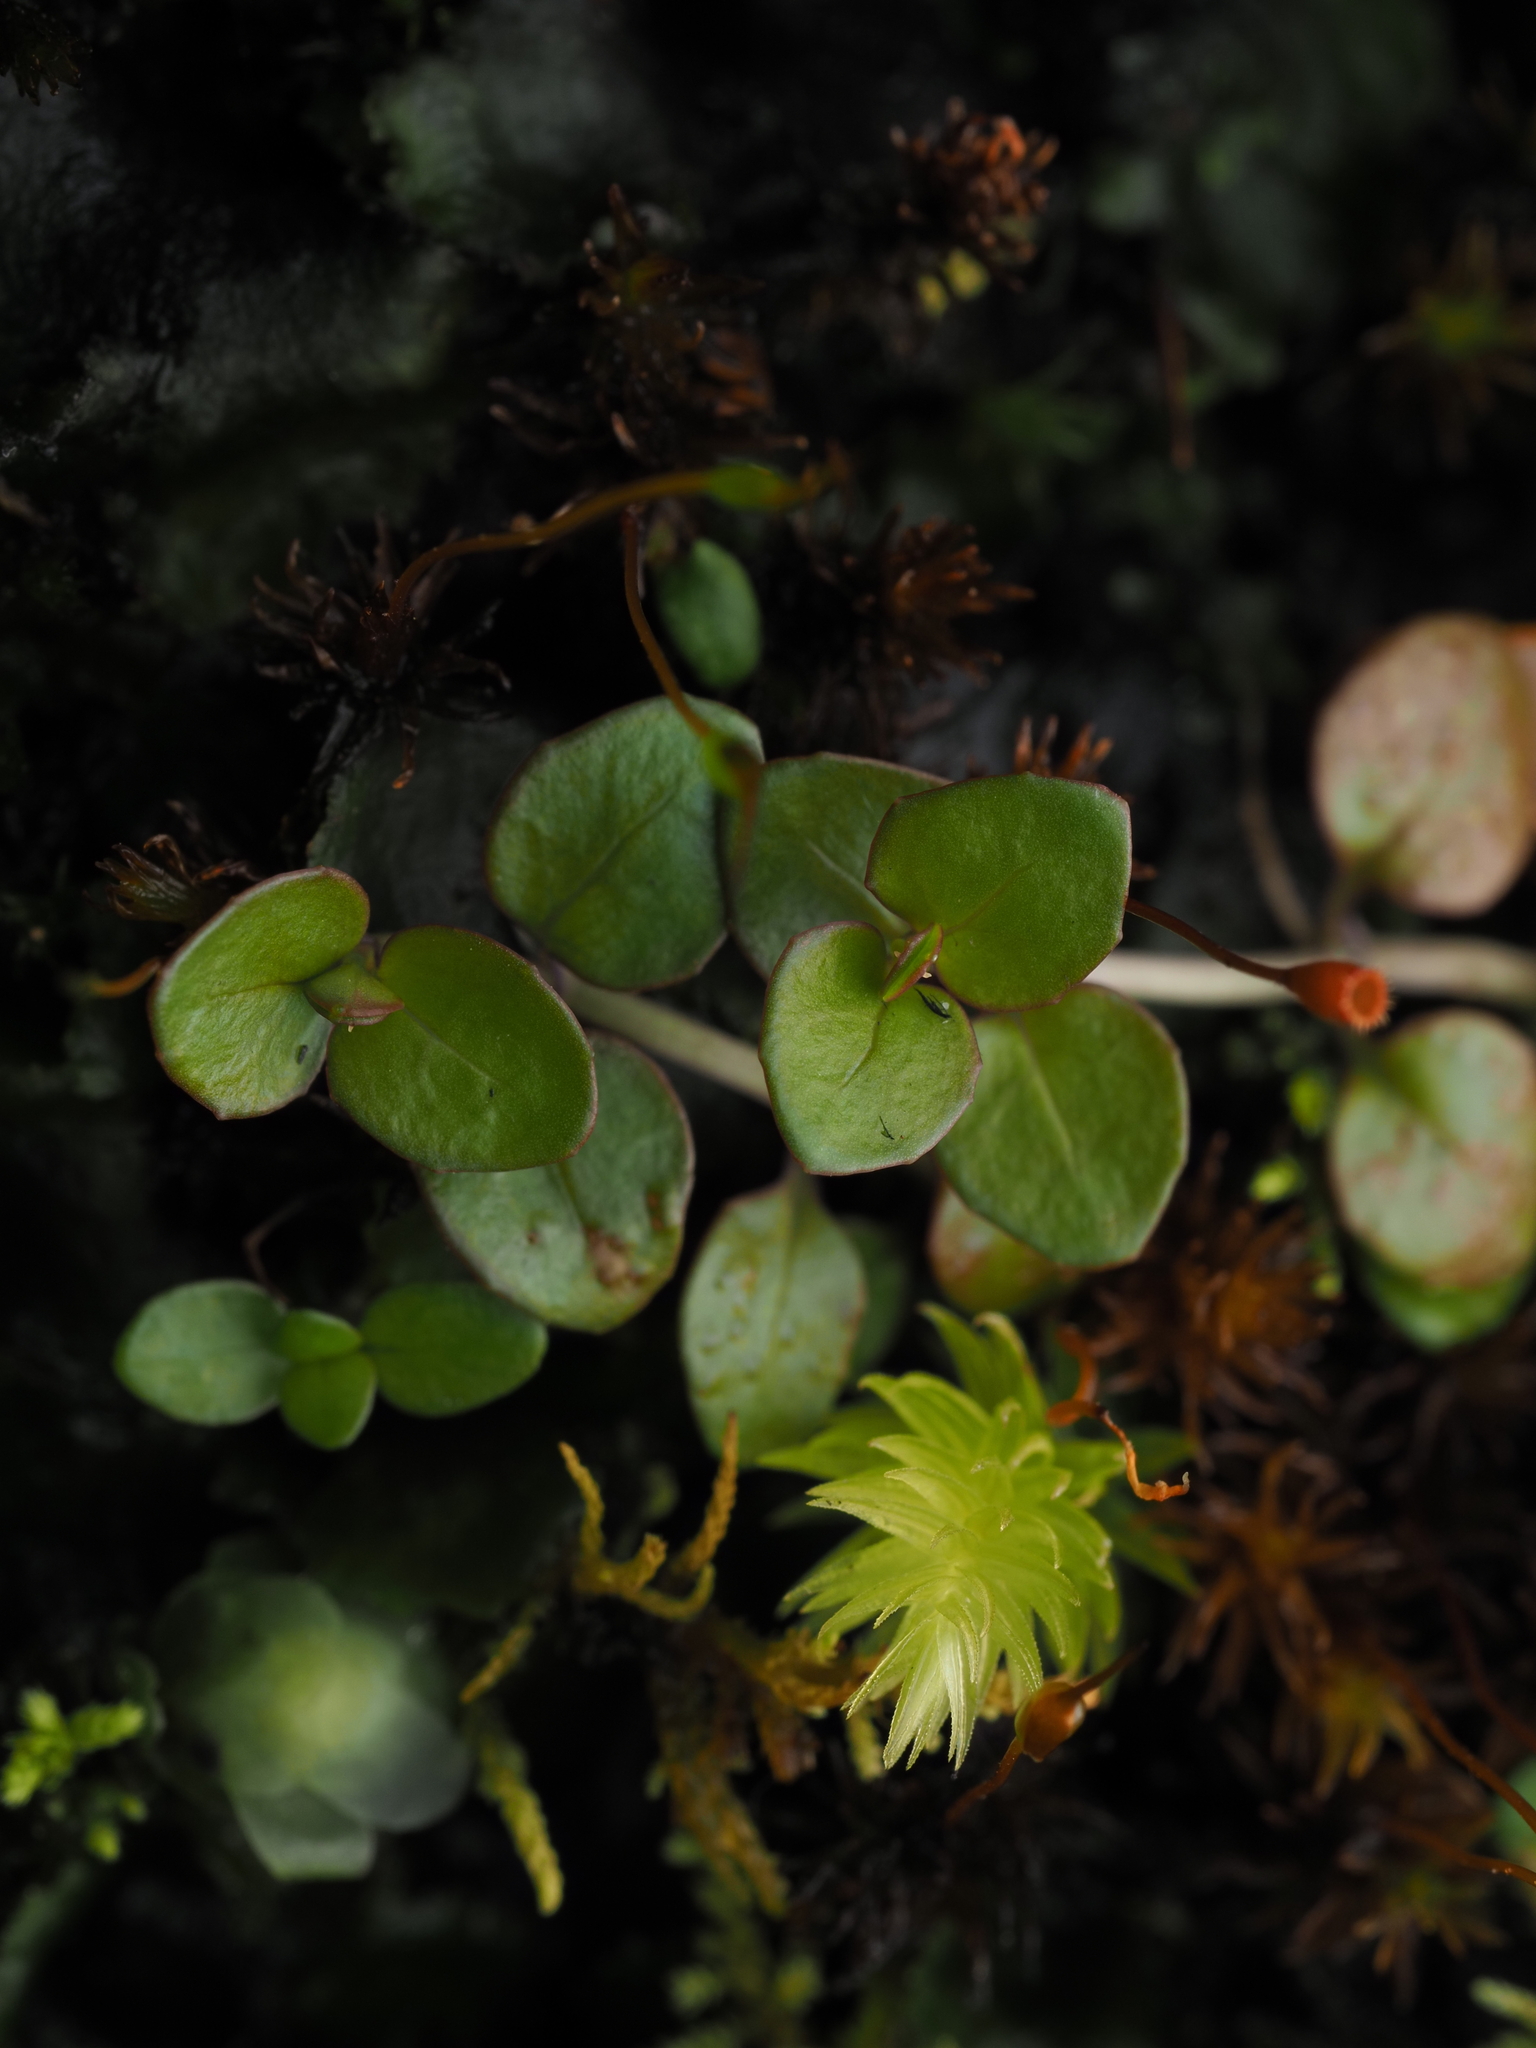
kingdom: Plantae
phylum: Tracheophyta
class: Magnoliopsida
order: Myrtales
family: Onagraceae
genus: Epilobium
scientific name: Epilobium brunnescens
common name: New zealand willowherb
